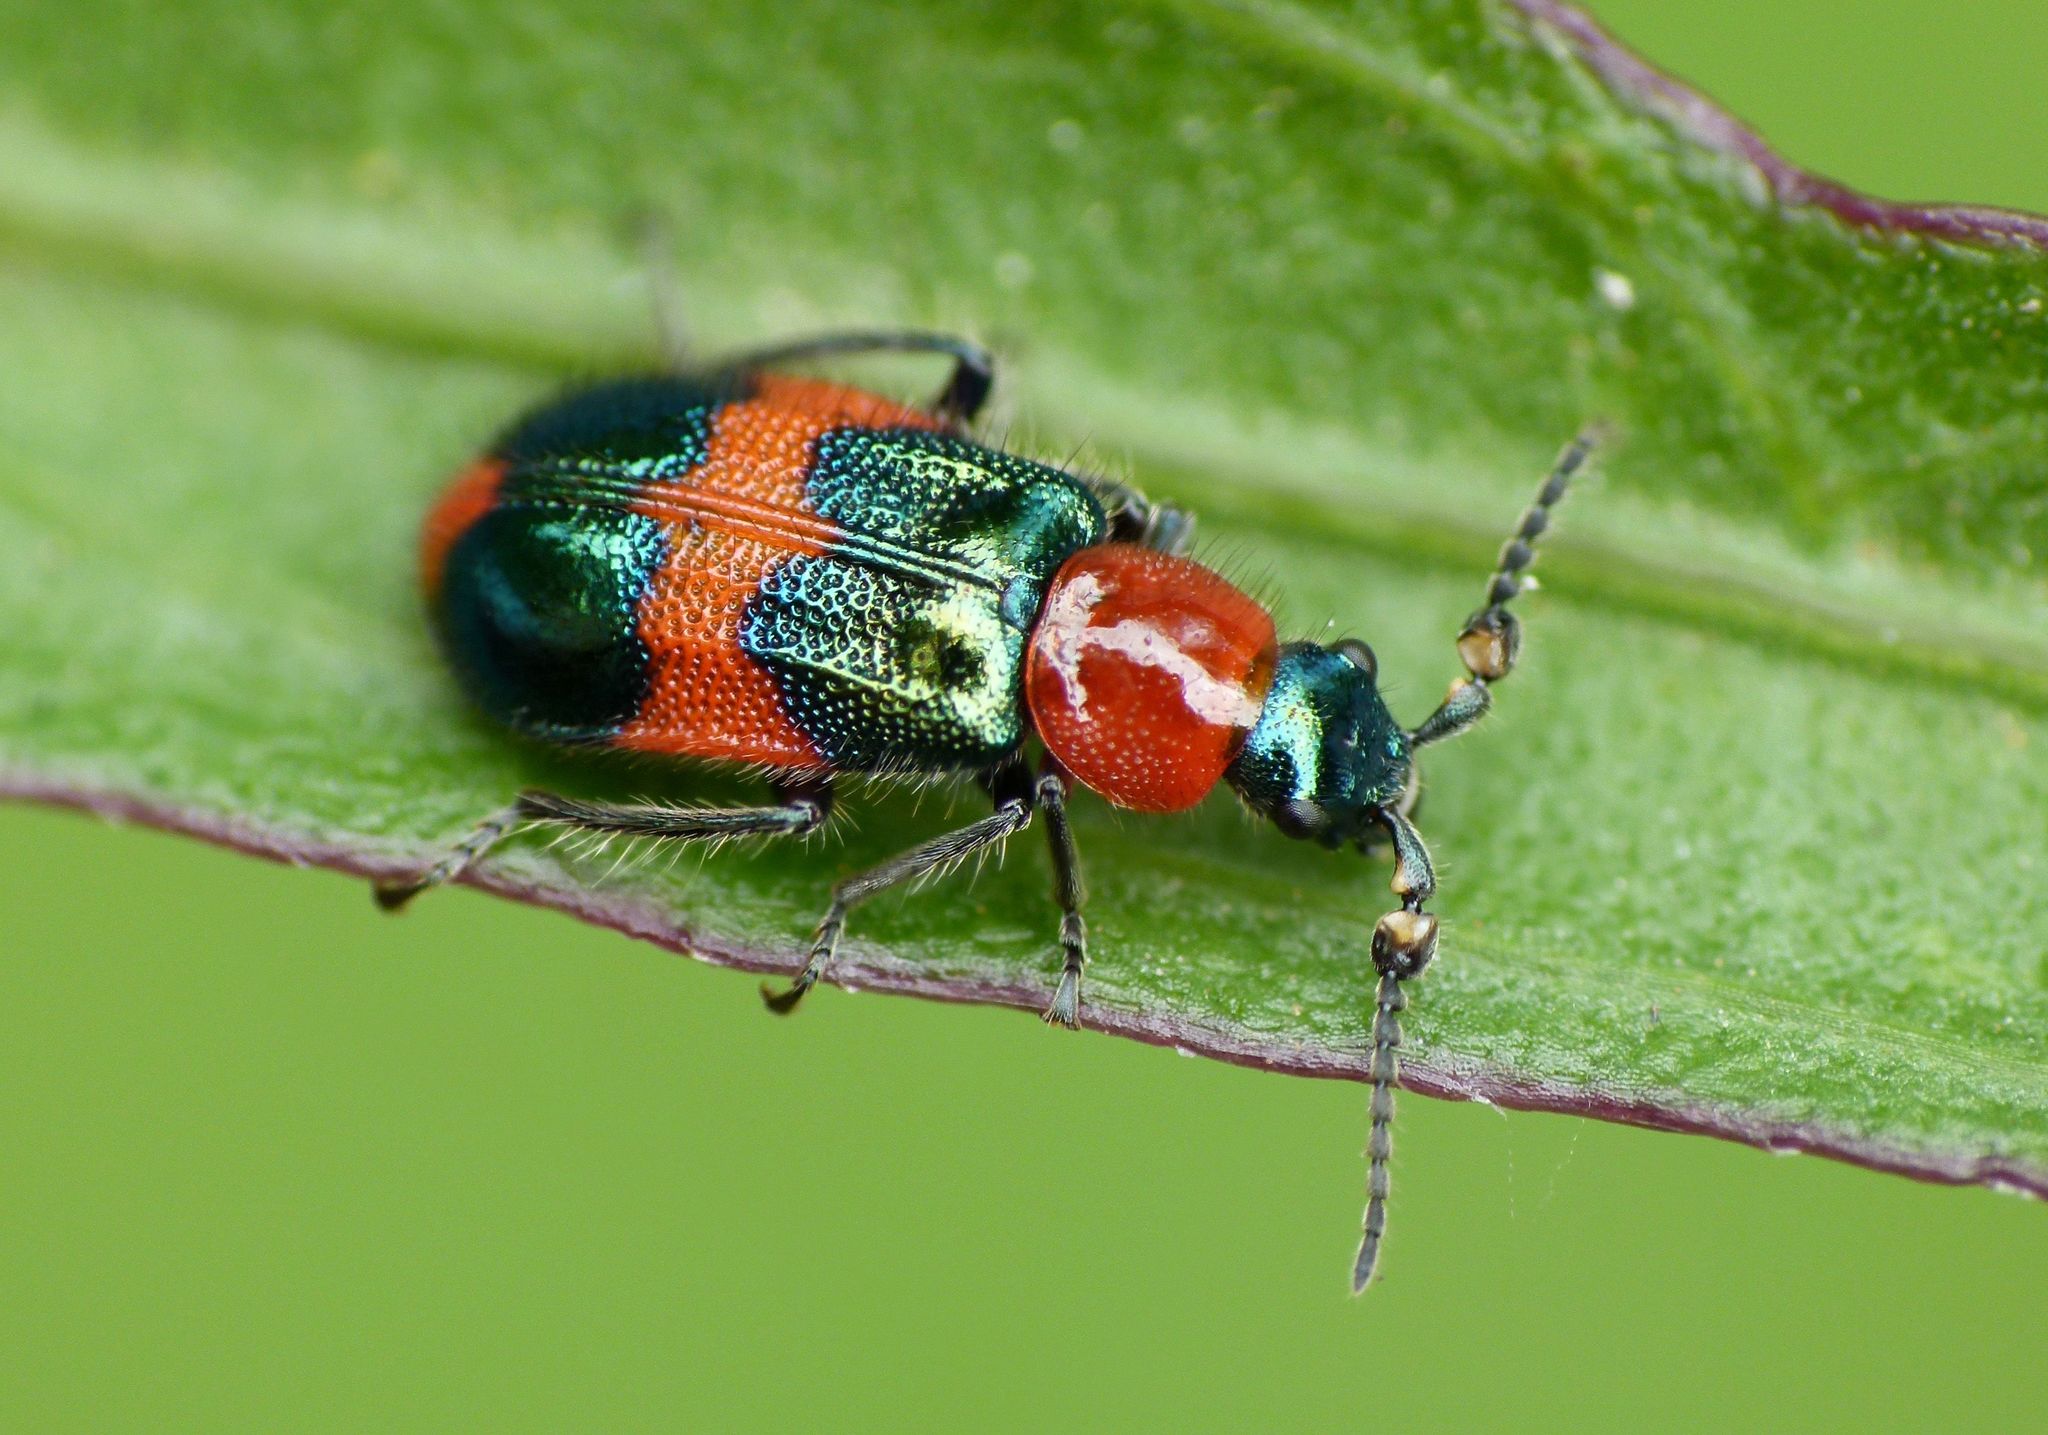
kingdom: Animalia
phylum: Arthropoda
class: Insecta
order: Coleoptera
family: Melyridae
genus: Dicranolaius
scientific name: Dicranolaius bellulus
